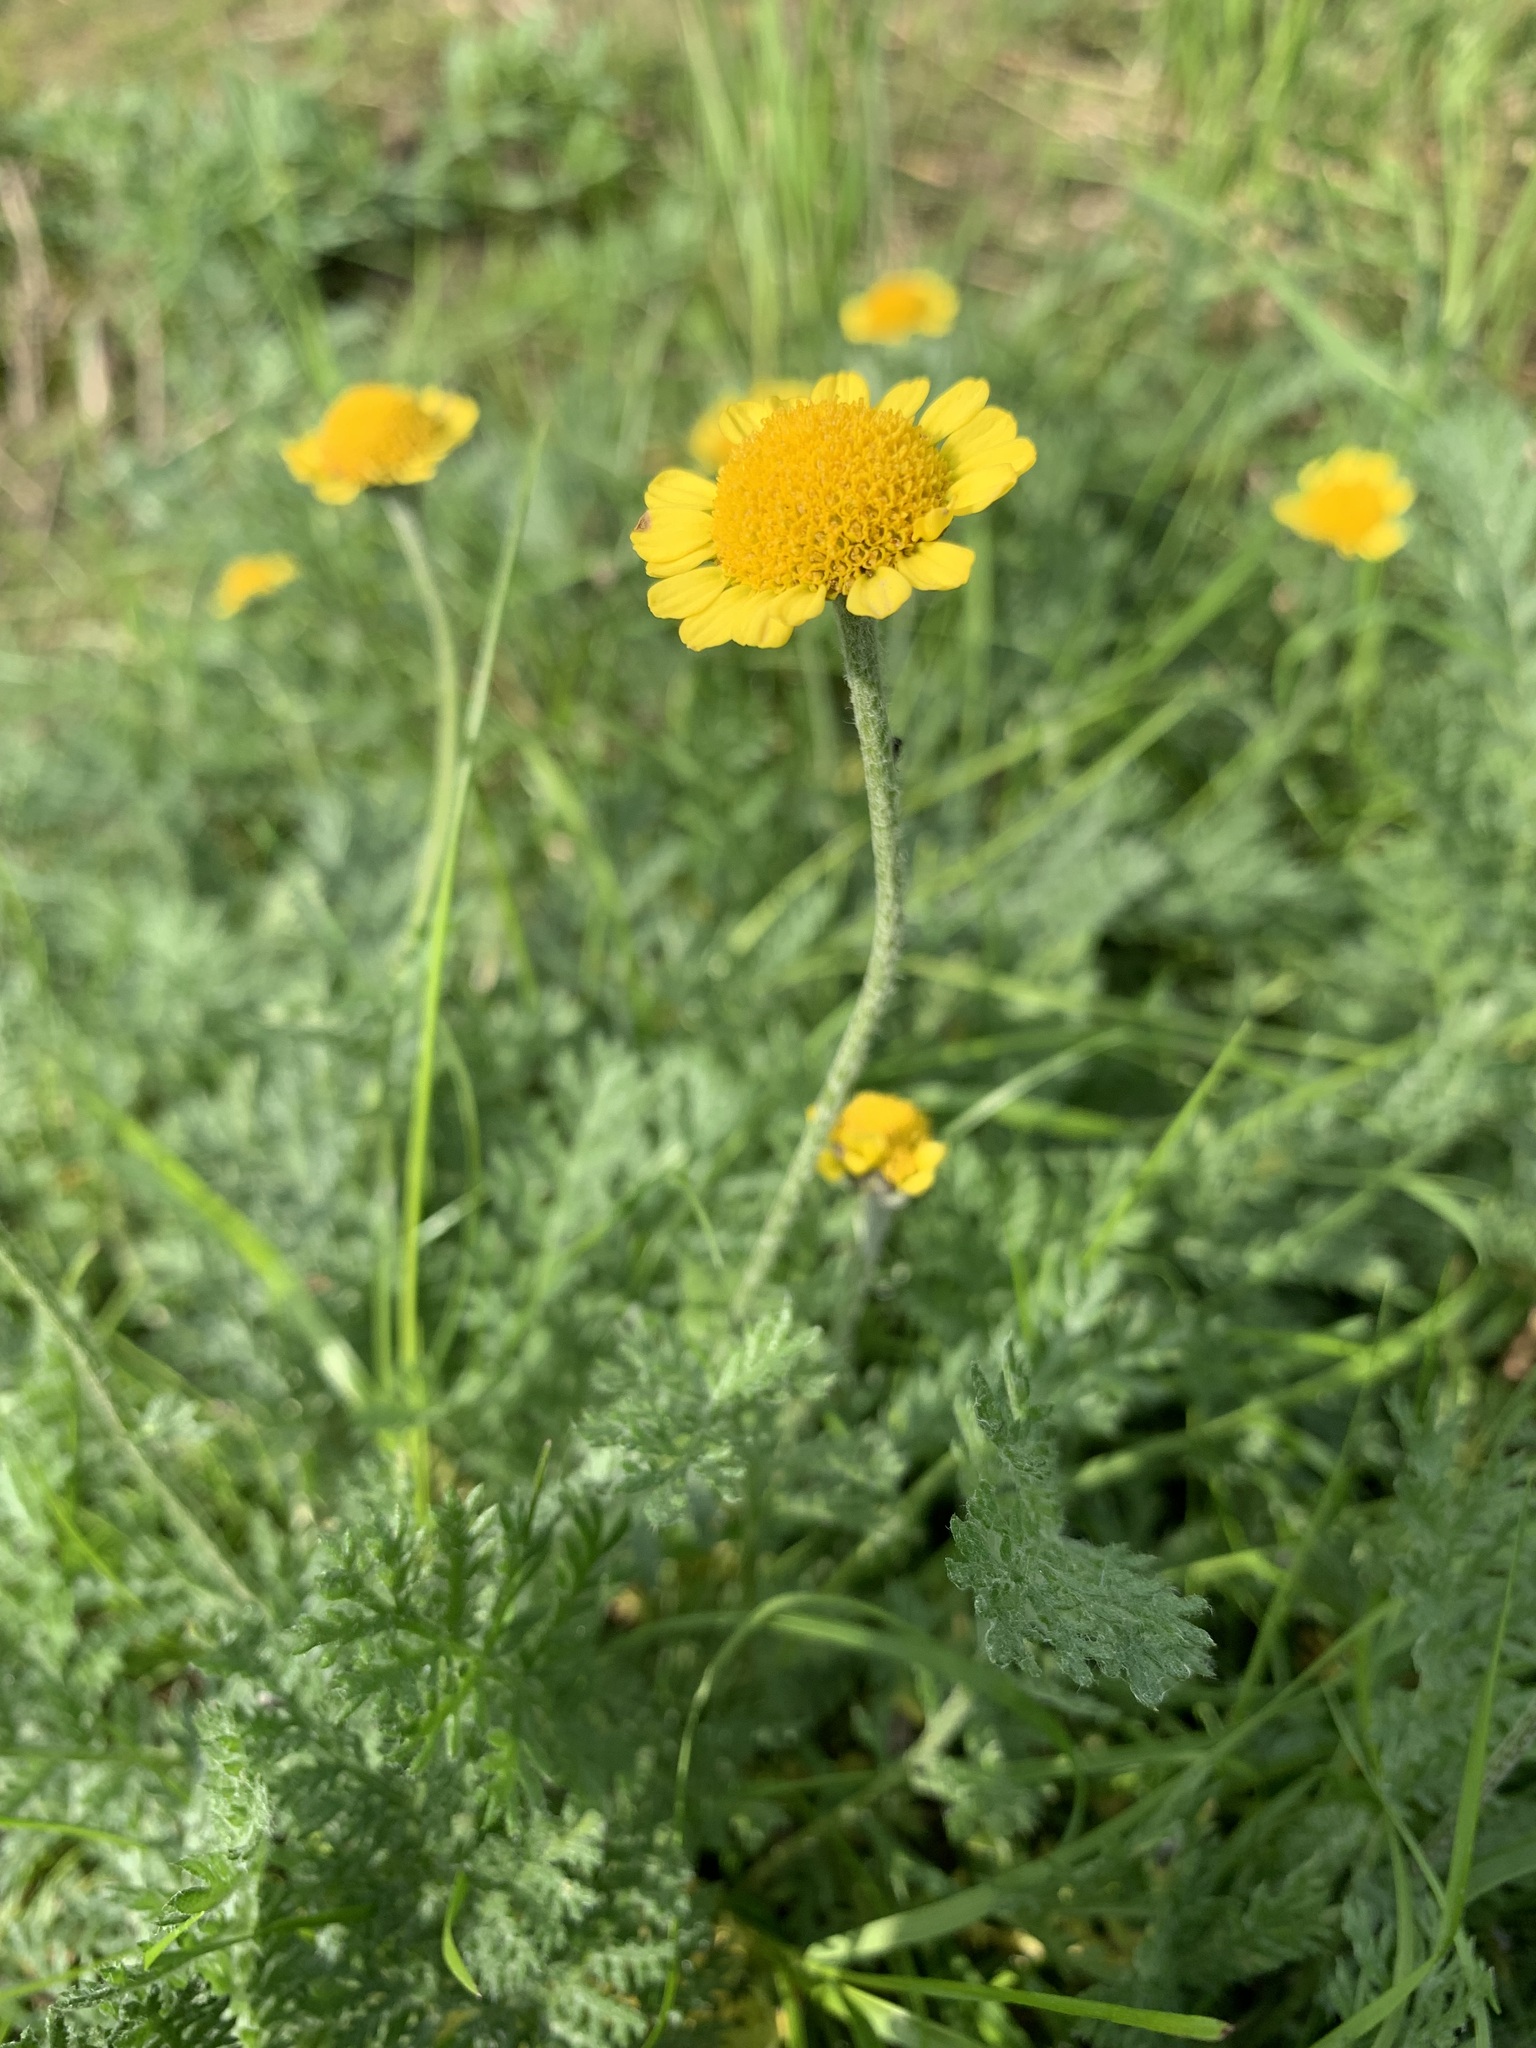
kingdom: Plantae
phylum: Tracheophyta
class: Magnoliopsida
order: Asterales
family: Asteraceae
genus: Tanacetum
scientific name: Tanacetum bipinnatum
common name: Dwarf tansy
